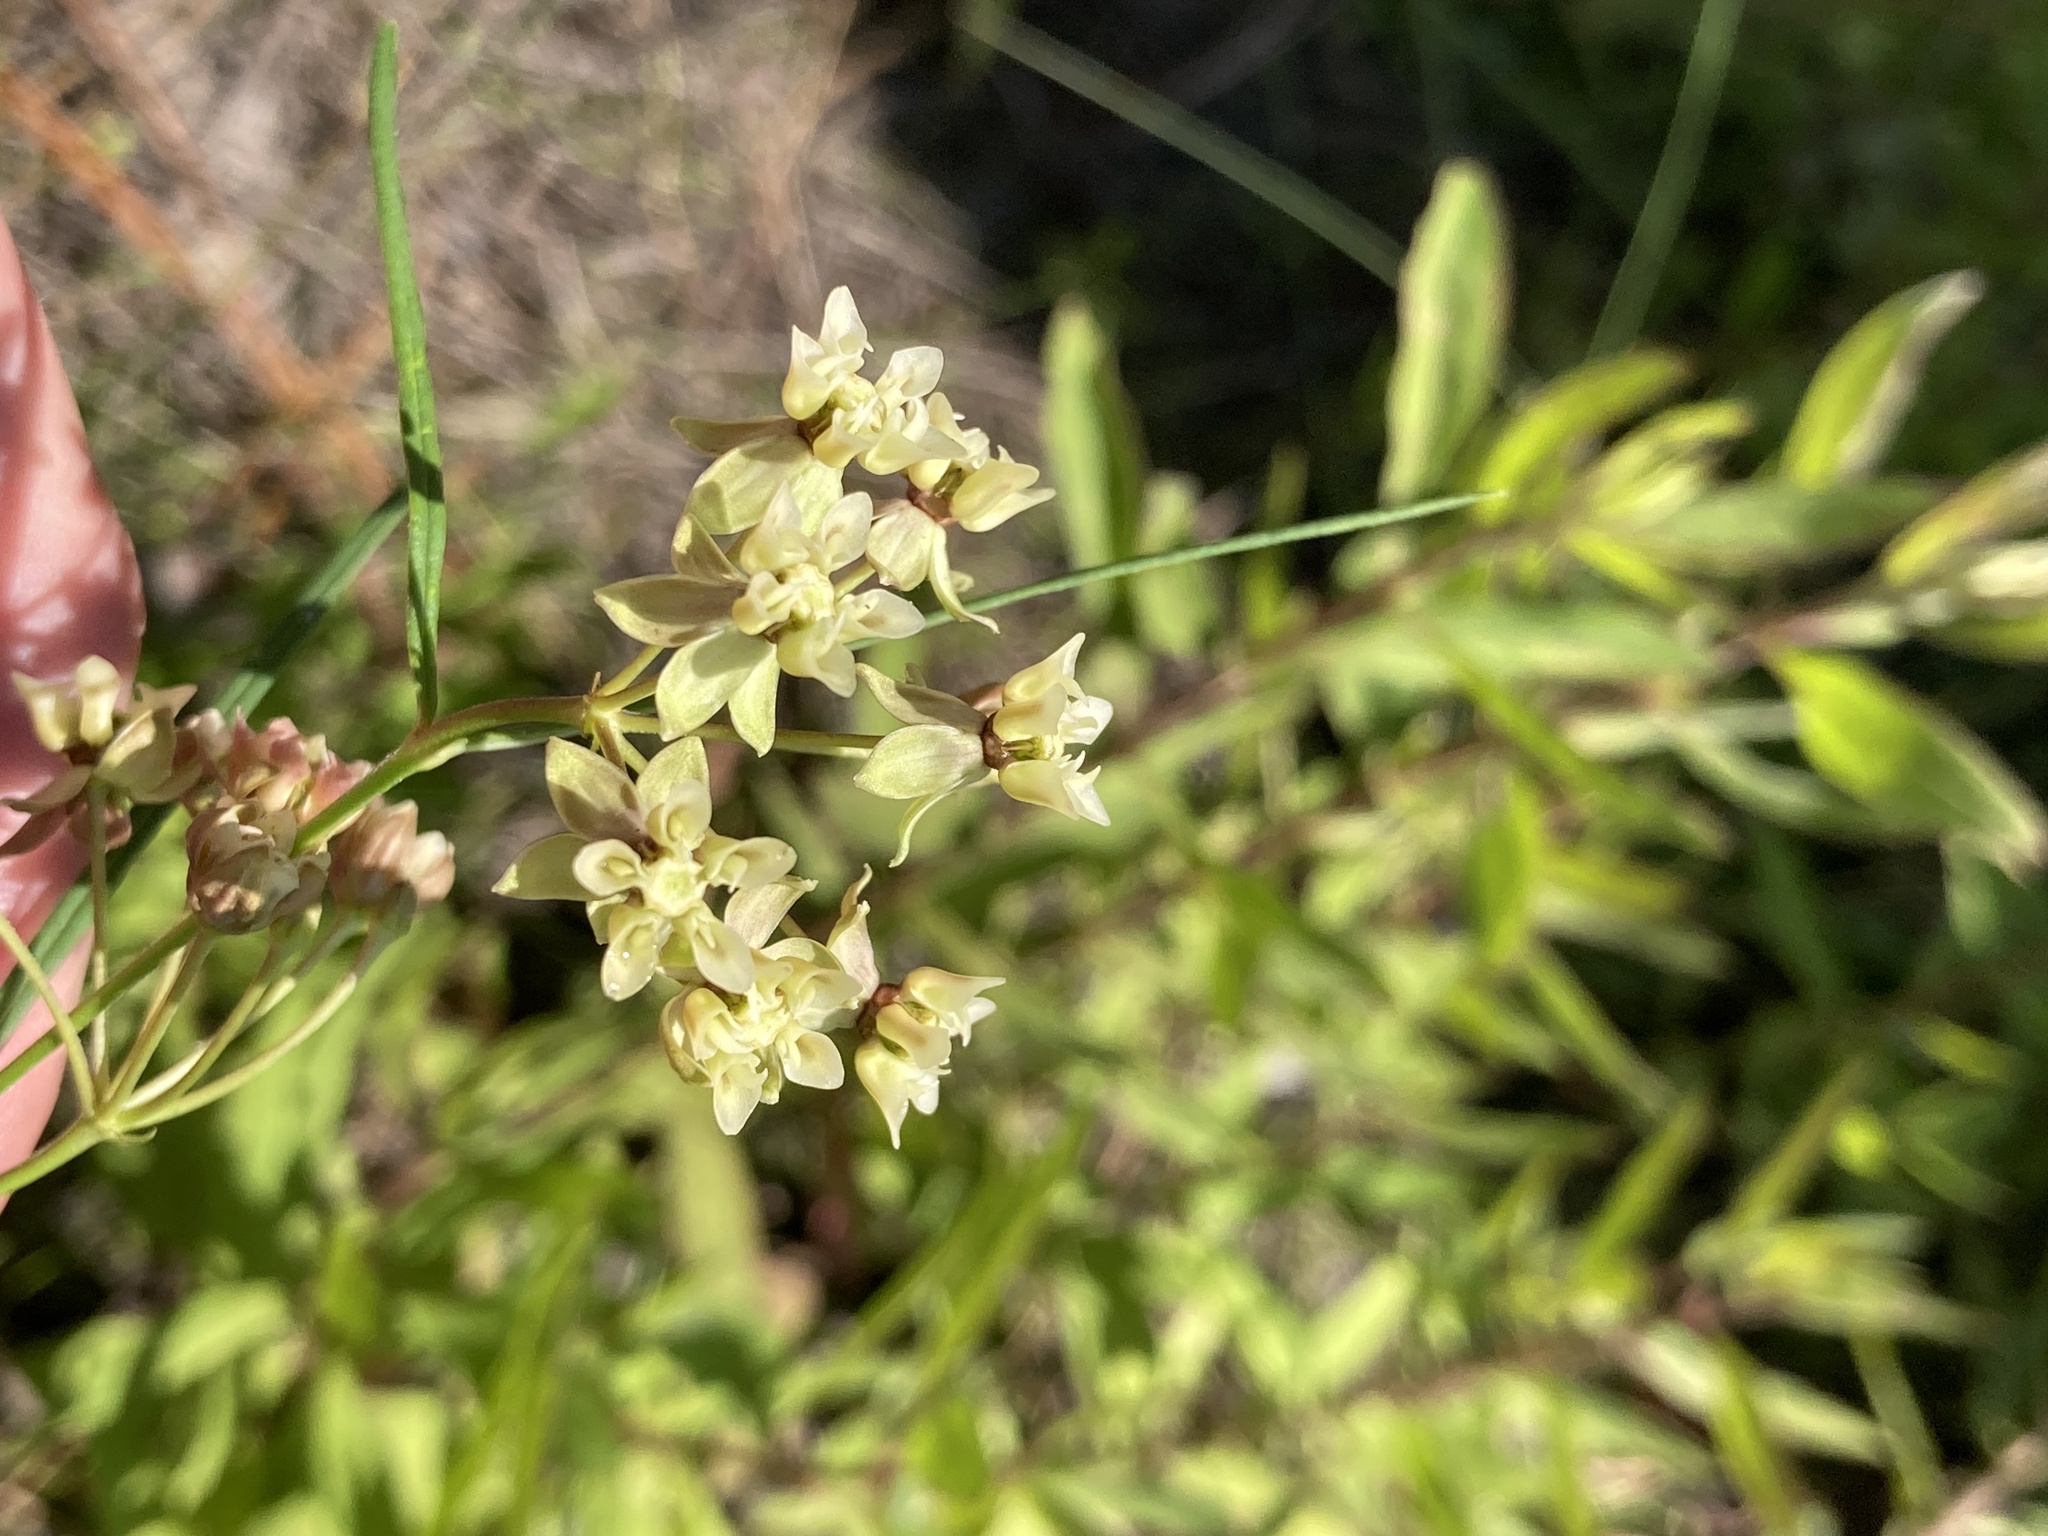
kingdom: Plantae
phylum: Tracheophyta
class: Magnoliopsida
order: Gentianales
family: Apocynaceae
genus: Asclepias
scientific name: Asclepias viridula
